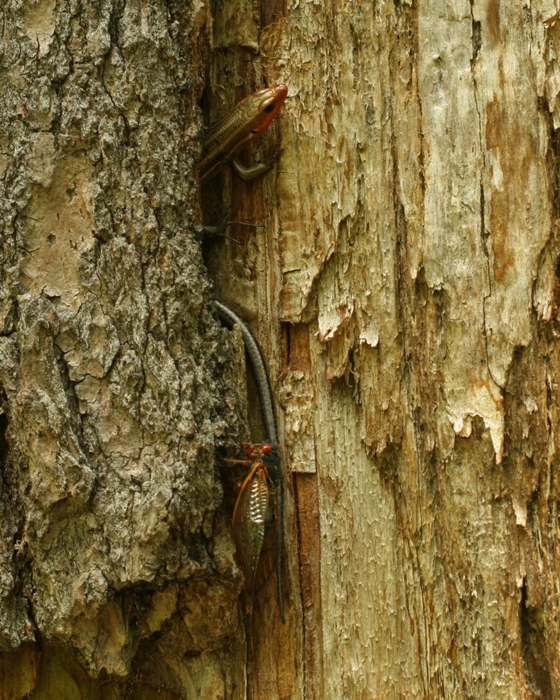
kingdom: Animalia
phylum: Chordata
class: Squamata
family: Scincidae
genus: Plestiodon
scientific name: Plestiodon fasciatus
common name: Five-lined skink
